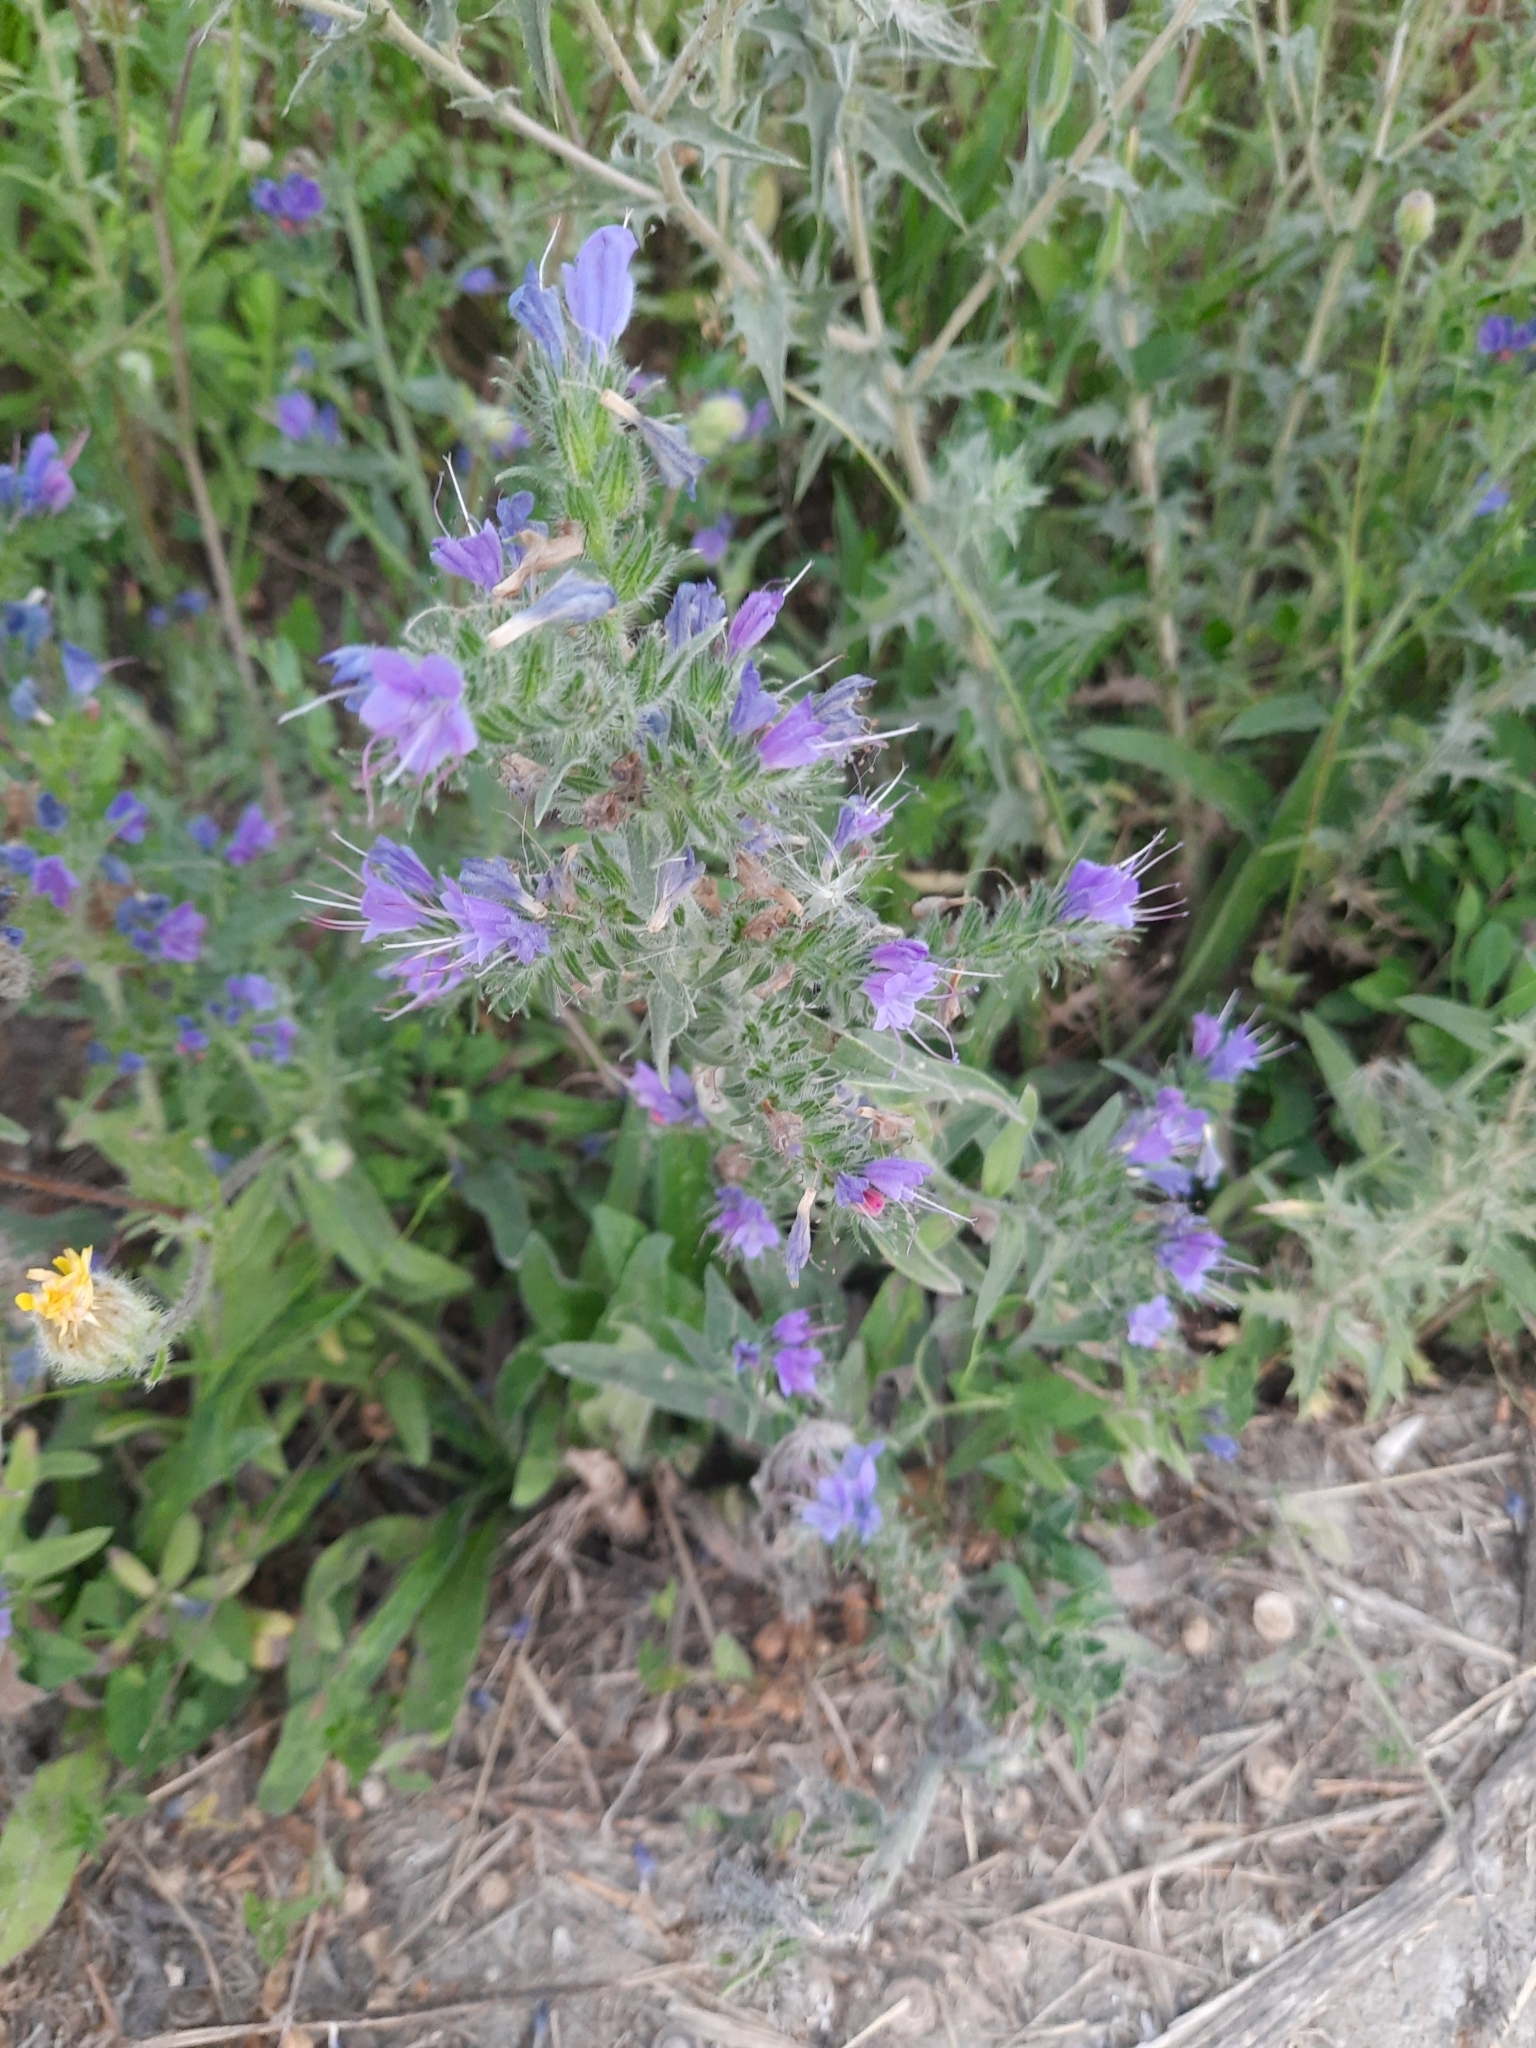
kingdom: Plantae
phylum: Tracheophyta
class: Magnoliopsida
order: Boraginales
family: Boraginaceae
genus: Echium
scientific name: Echium vulgare
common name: Common viper's bugloss
